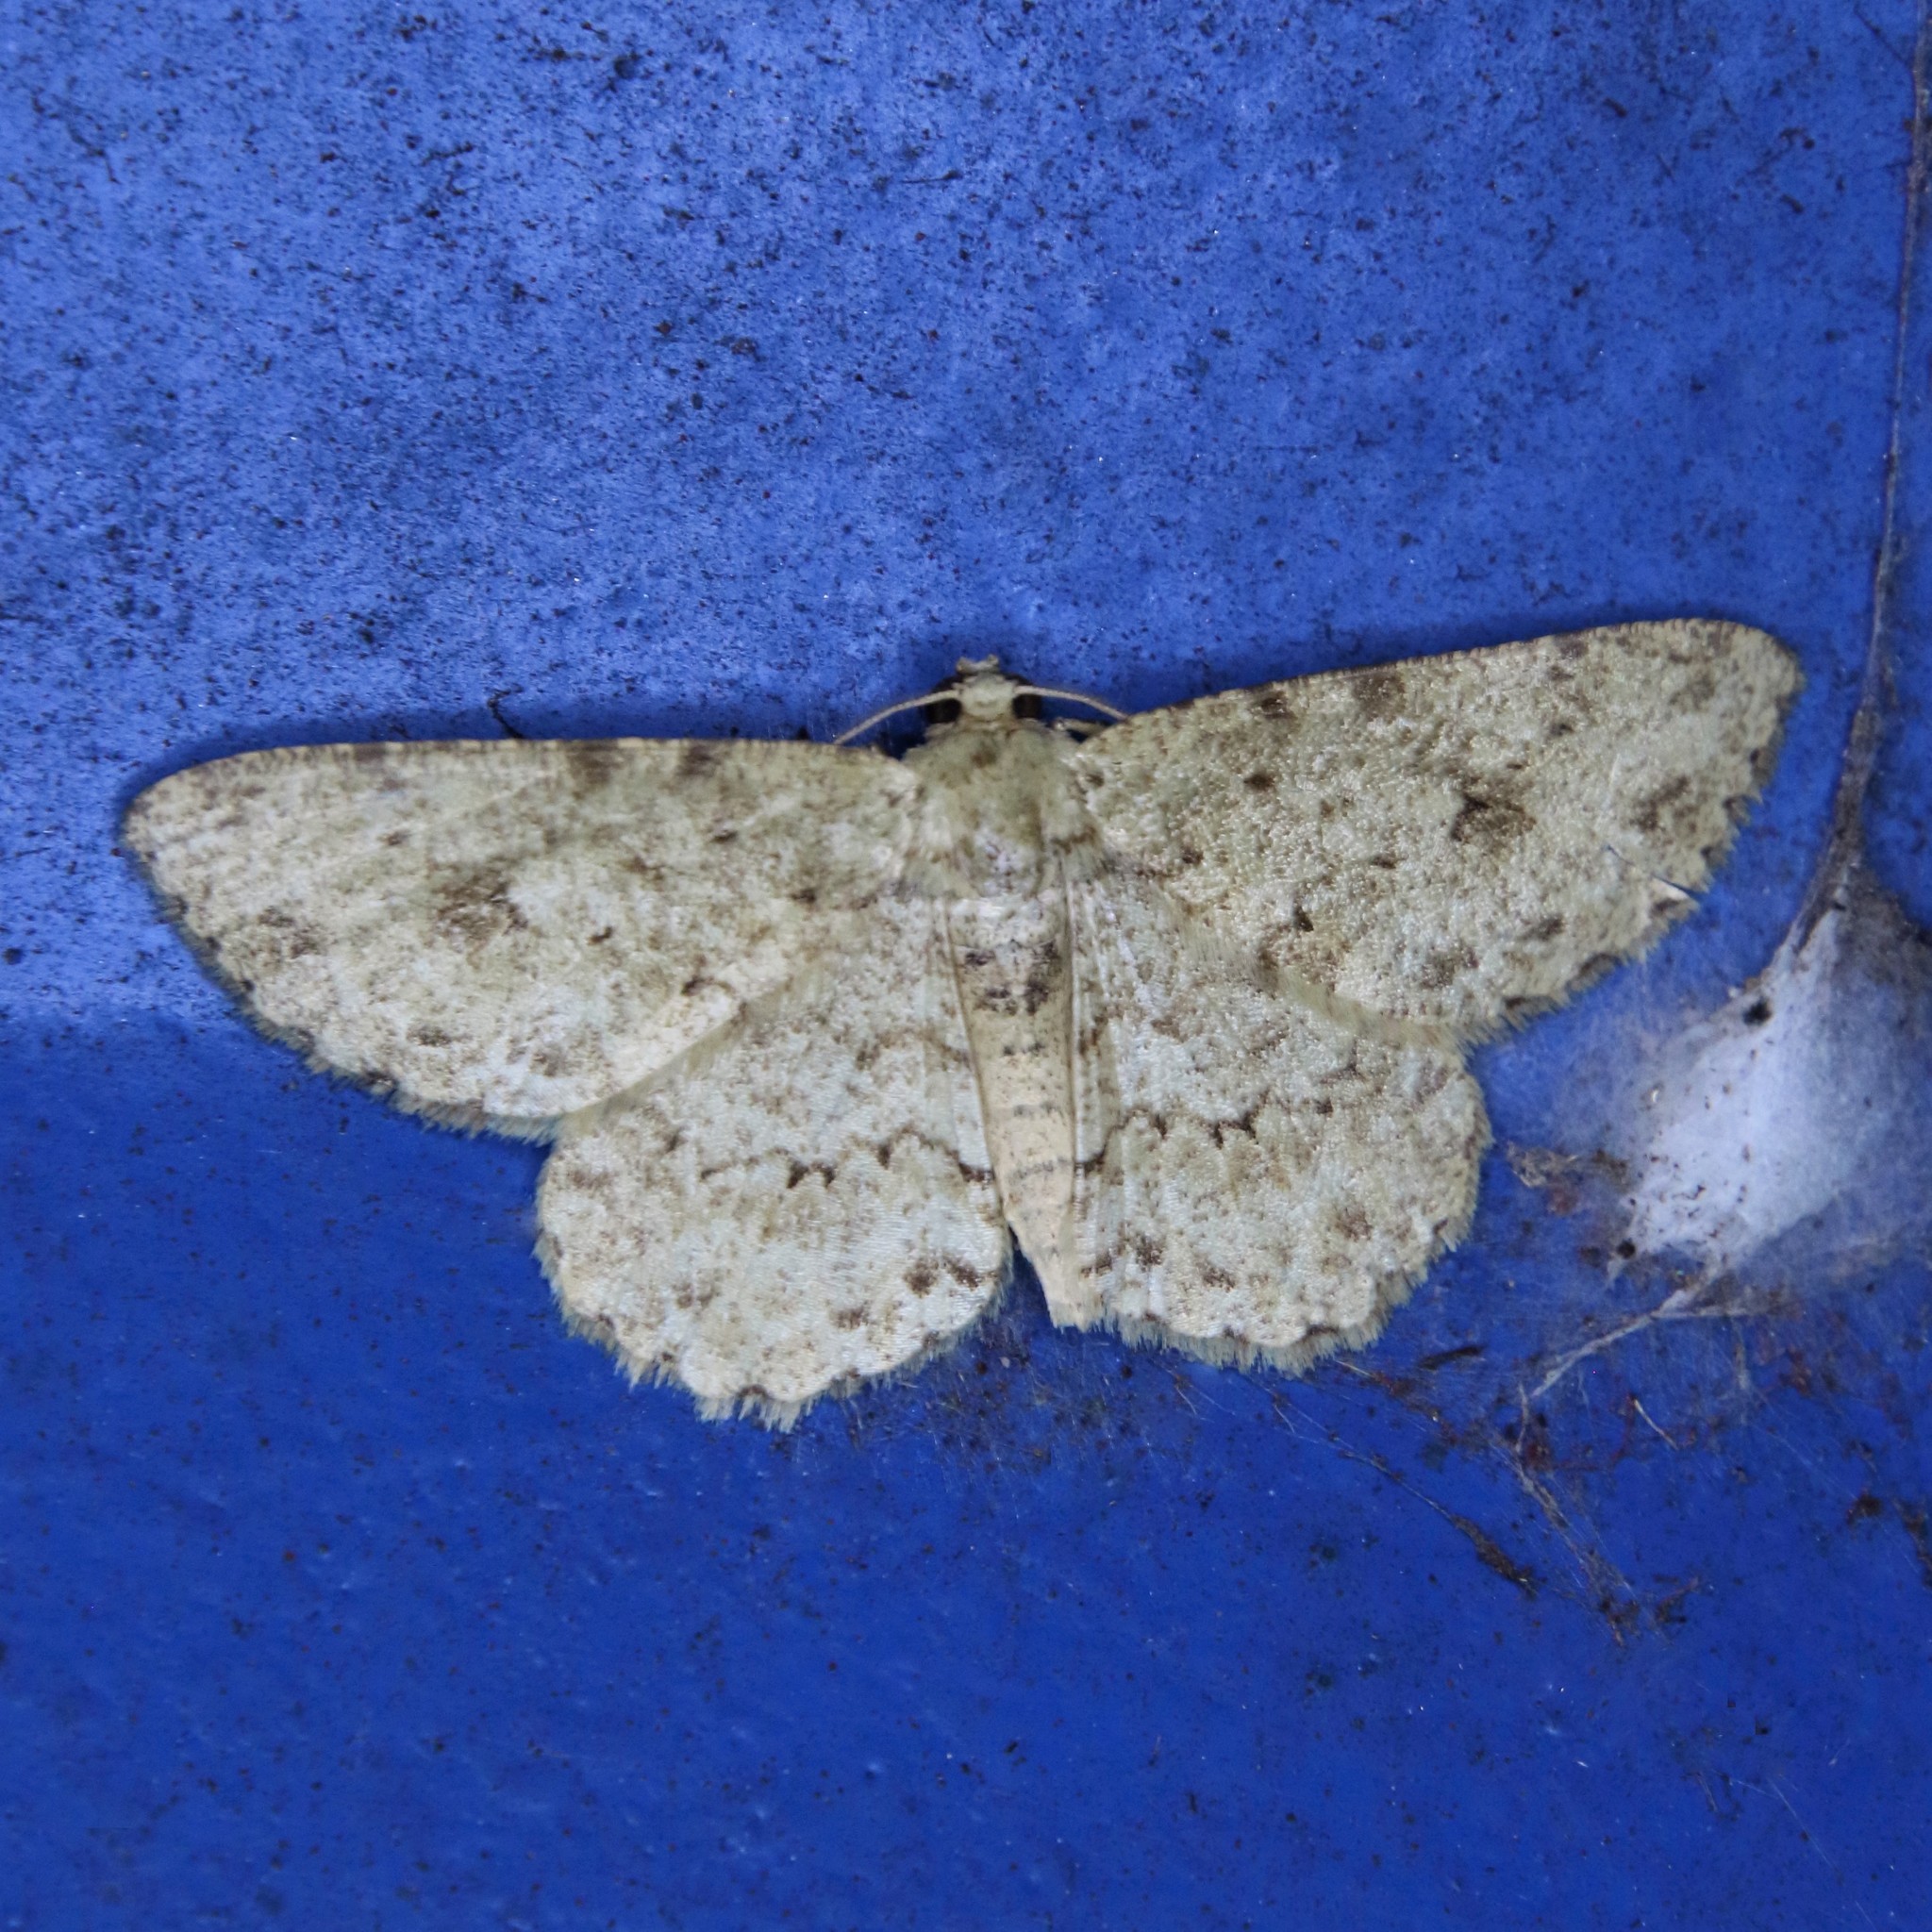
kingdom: Animalia
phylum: Arthropoda
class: Insecta
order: Lepidoptera
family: Geometridae
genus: Ectropis
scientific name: Ectropis bhurmitra
